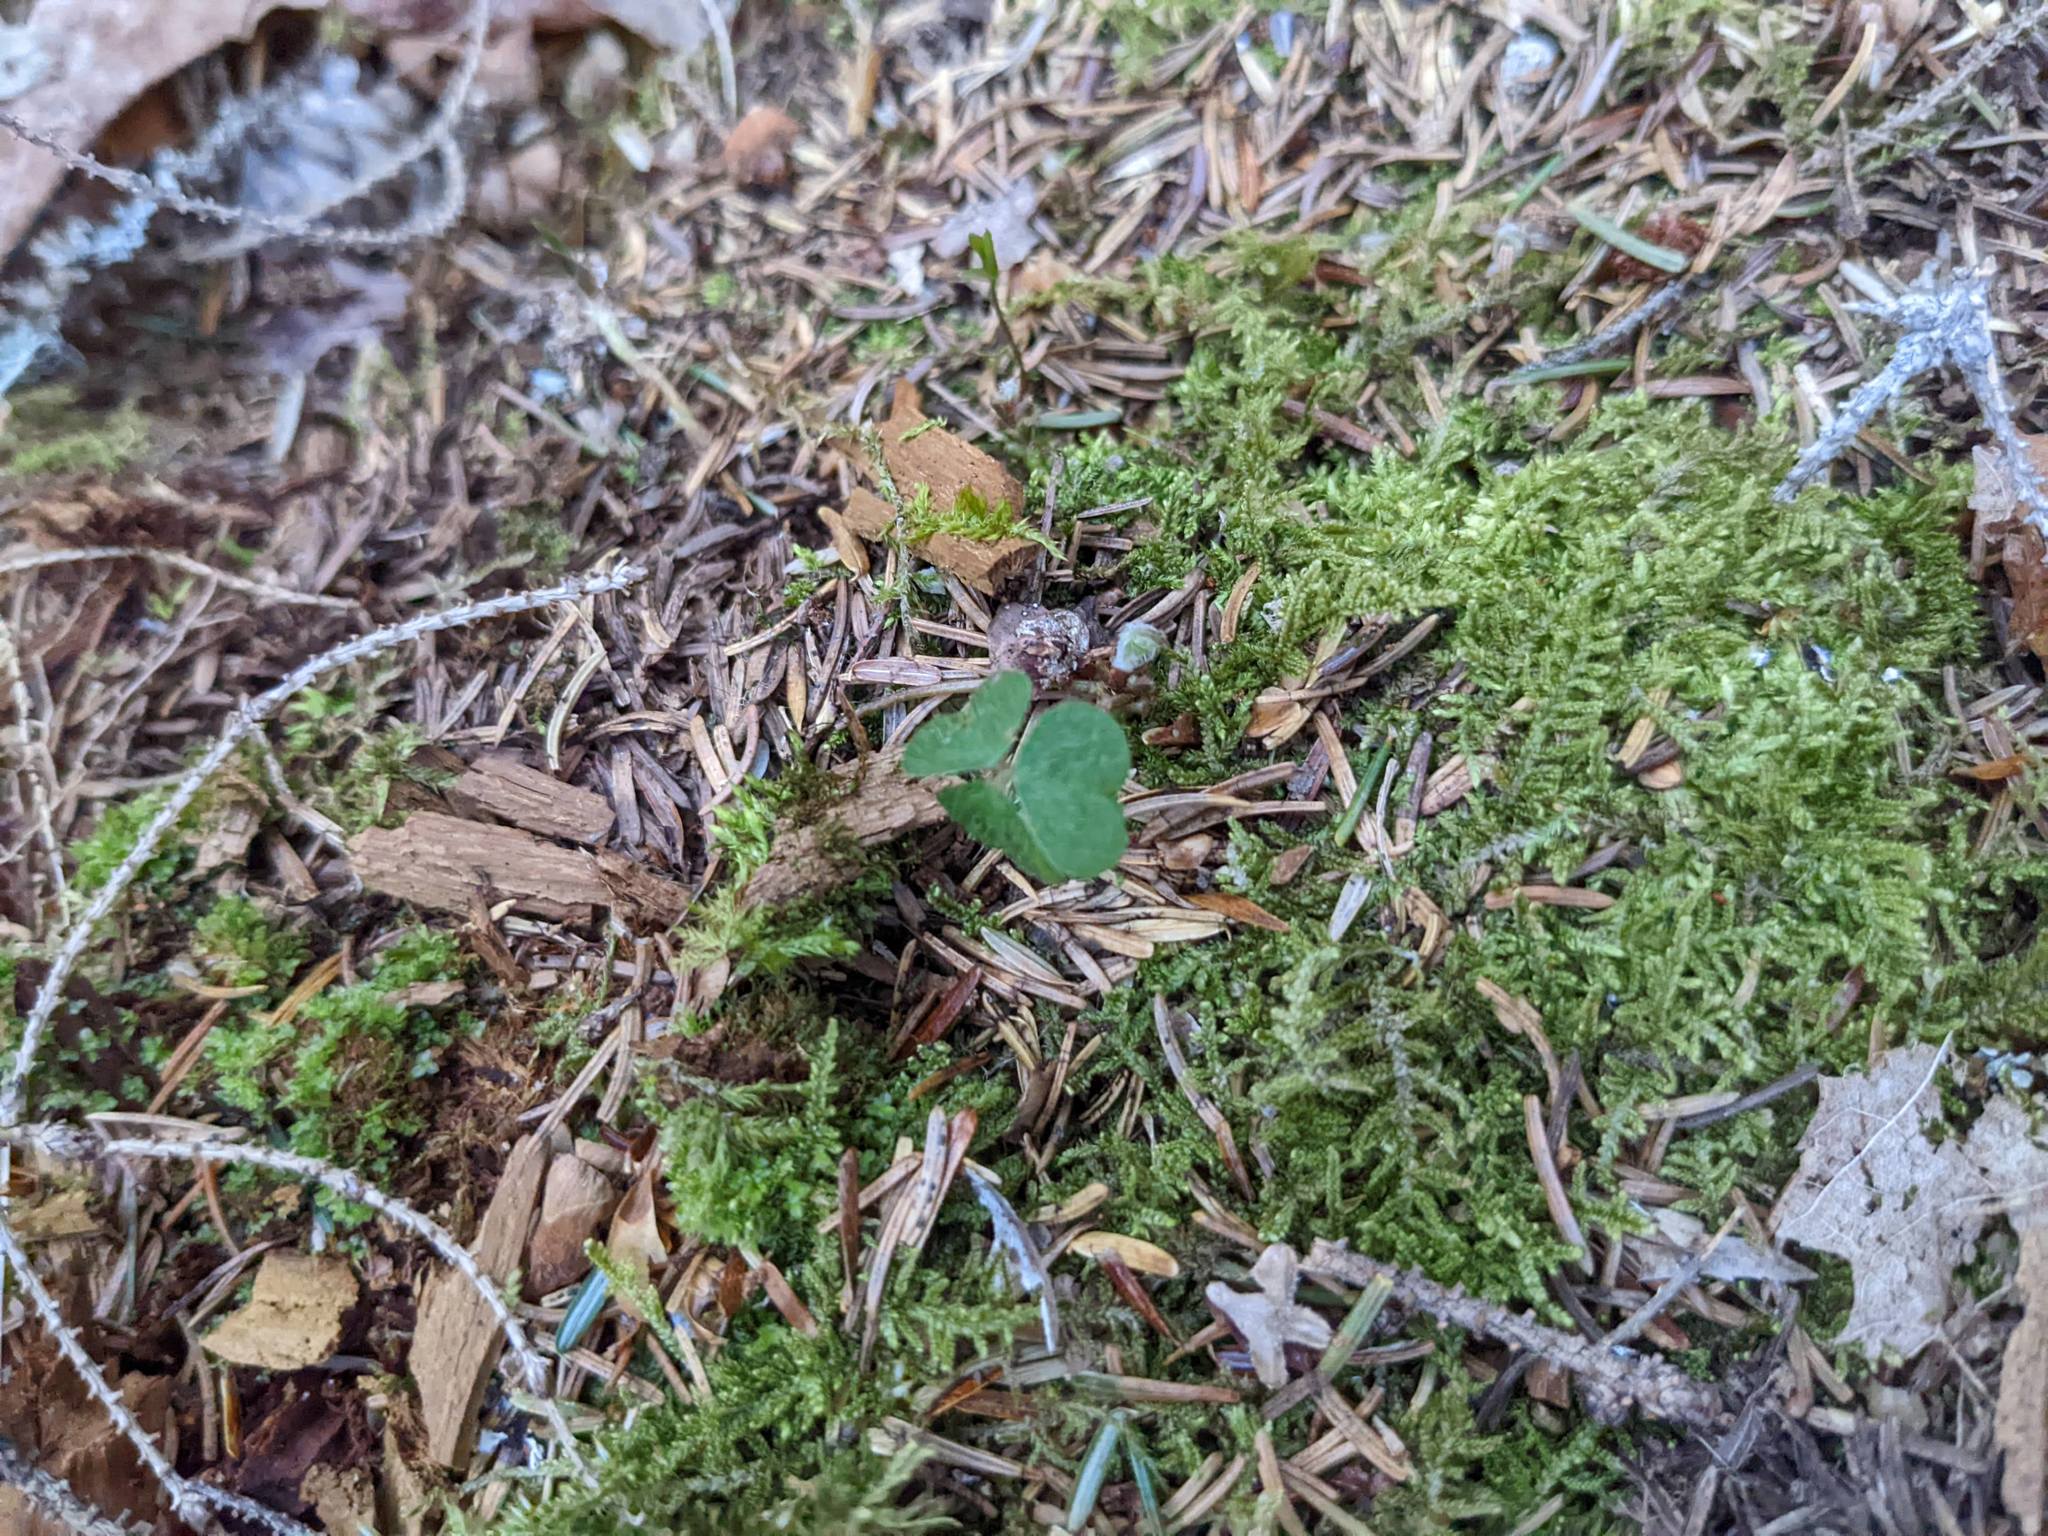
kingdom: Plantae
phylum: Tracheophyta
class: Magnoliopsida
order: Oxalidales
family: Oxalidaceae
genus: Oxalis
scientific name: Oxalis montana
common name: American wood-sorrel
